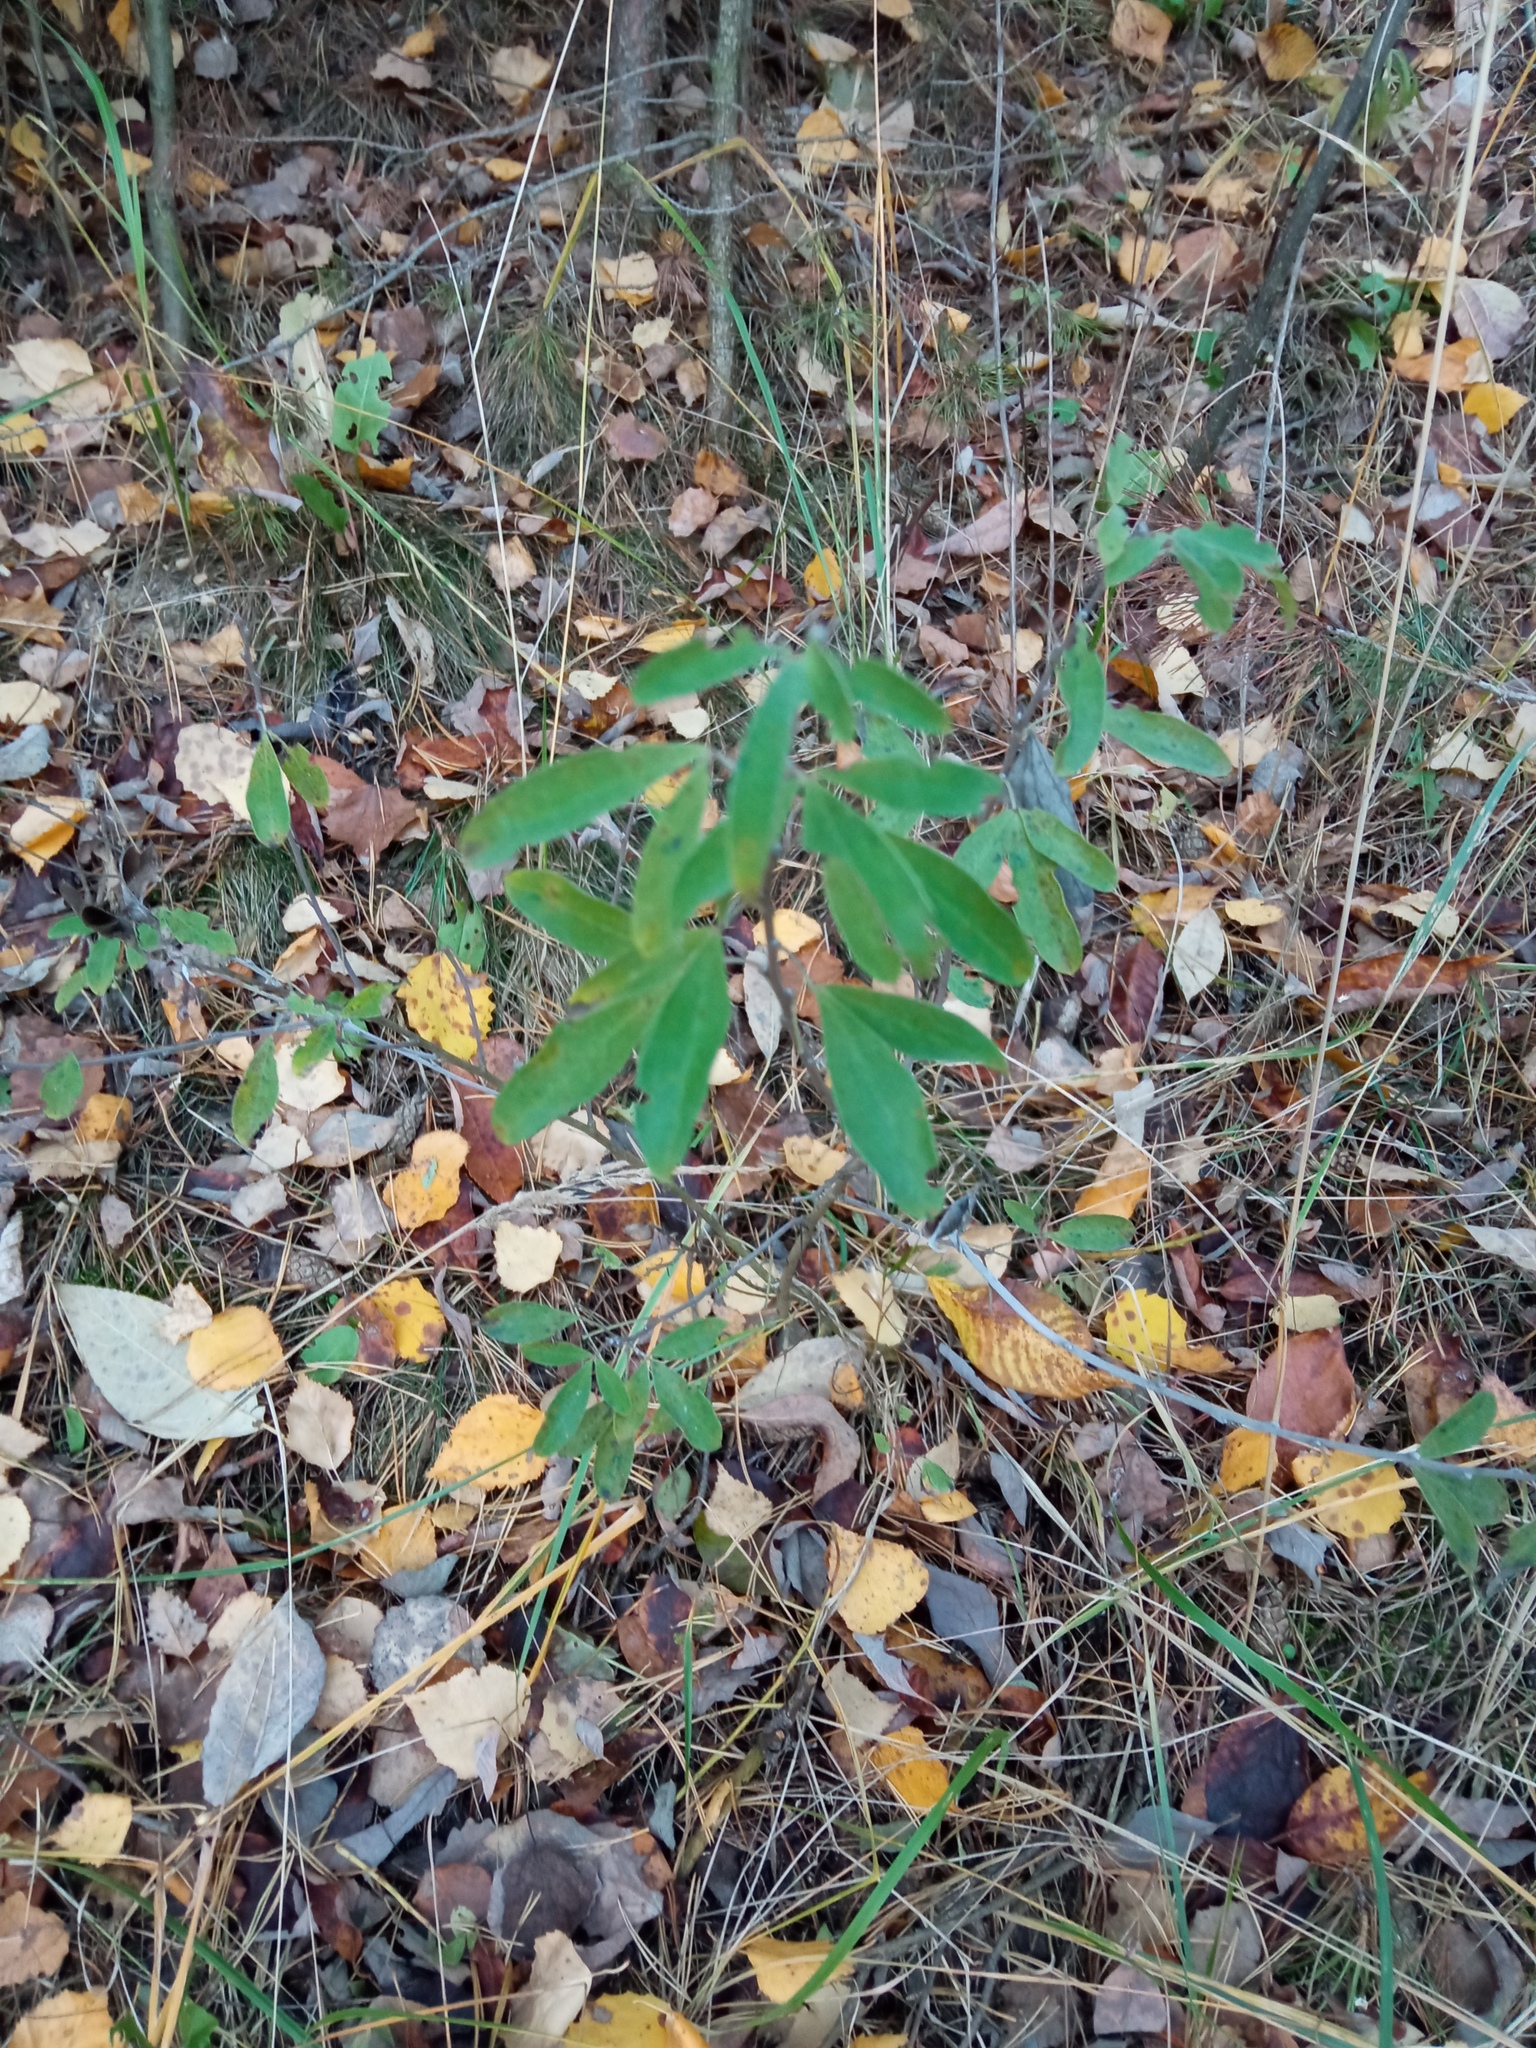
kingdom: Plantae
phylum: Tracheophyta
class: Magnoliopsida
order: Fabales
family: Fabaceae
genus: Chamaecytisus
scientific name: Chamaecytisus ruthenicus
